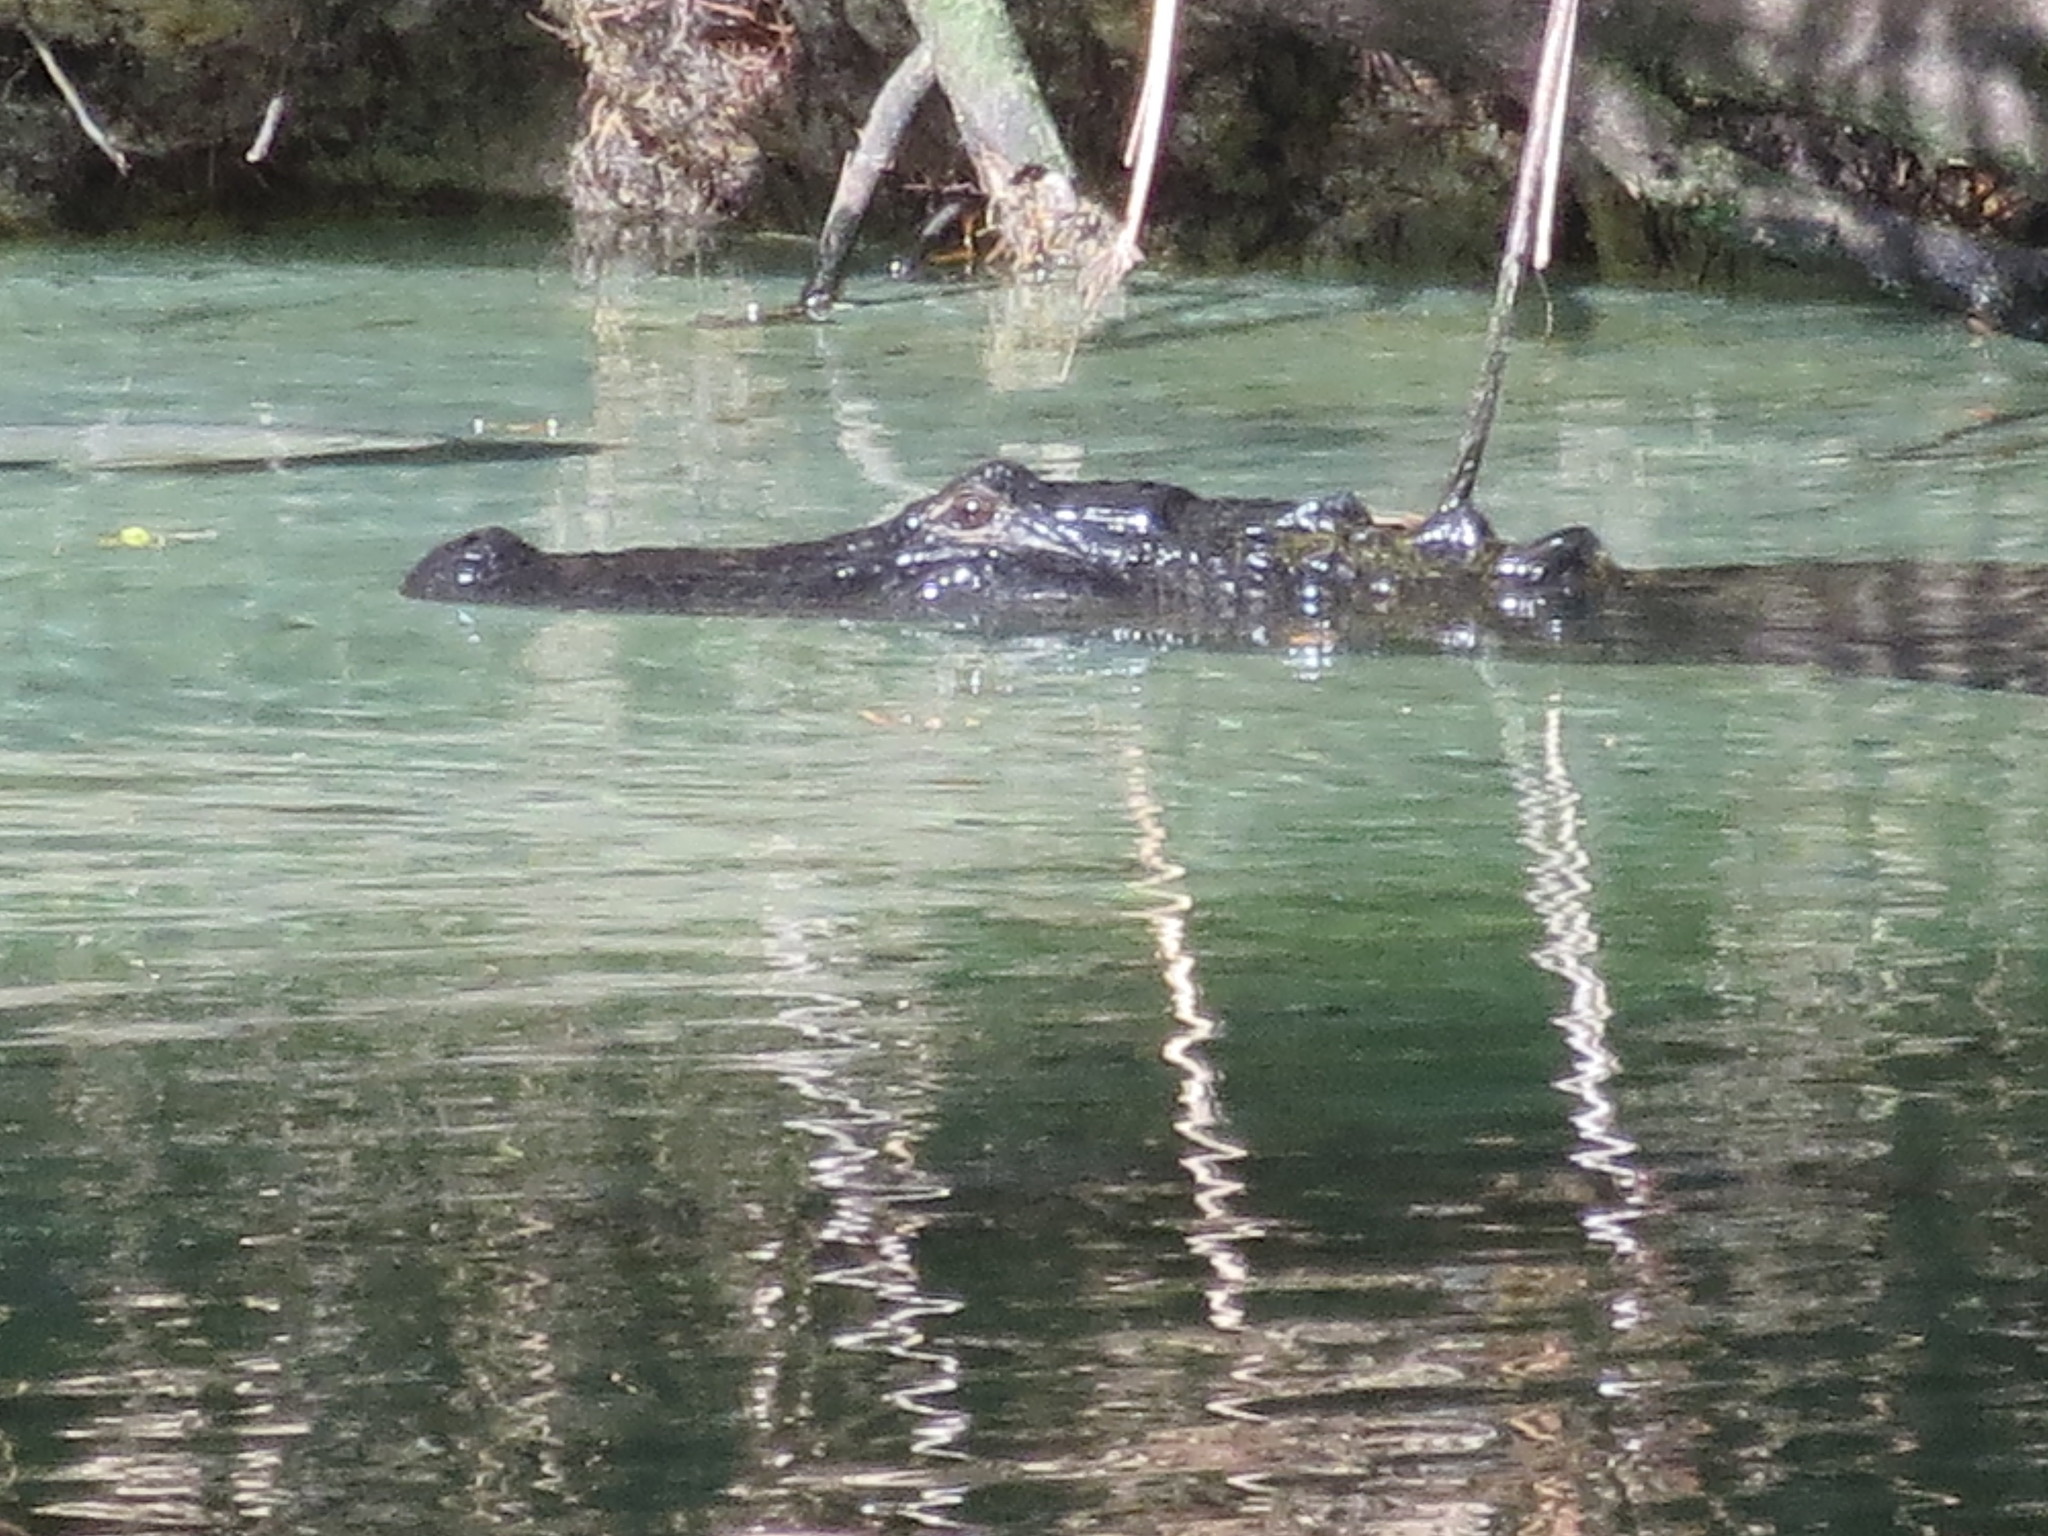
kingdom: Animalia
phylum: Chordata
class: Crocodylia
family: Alligatoridae
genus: Alligator
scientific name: Alligator mississippiensis
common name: American alligator
